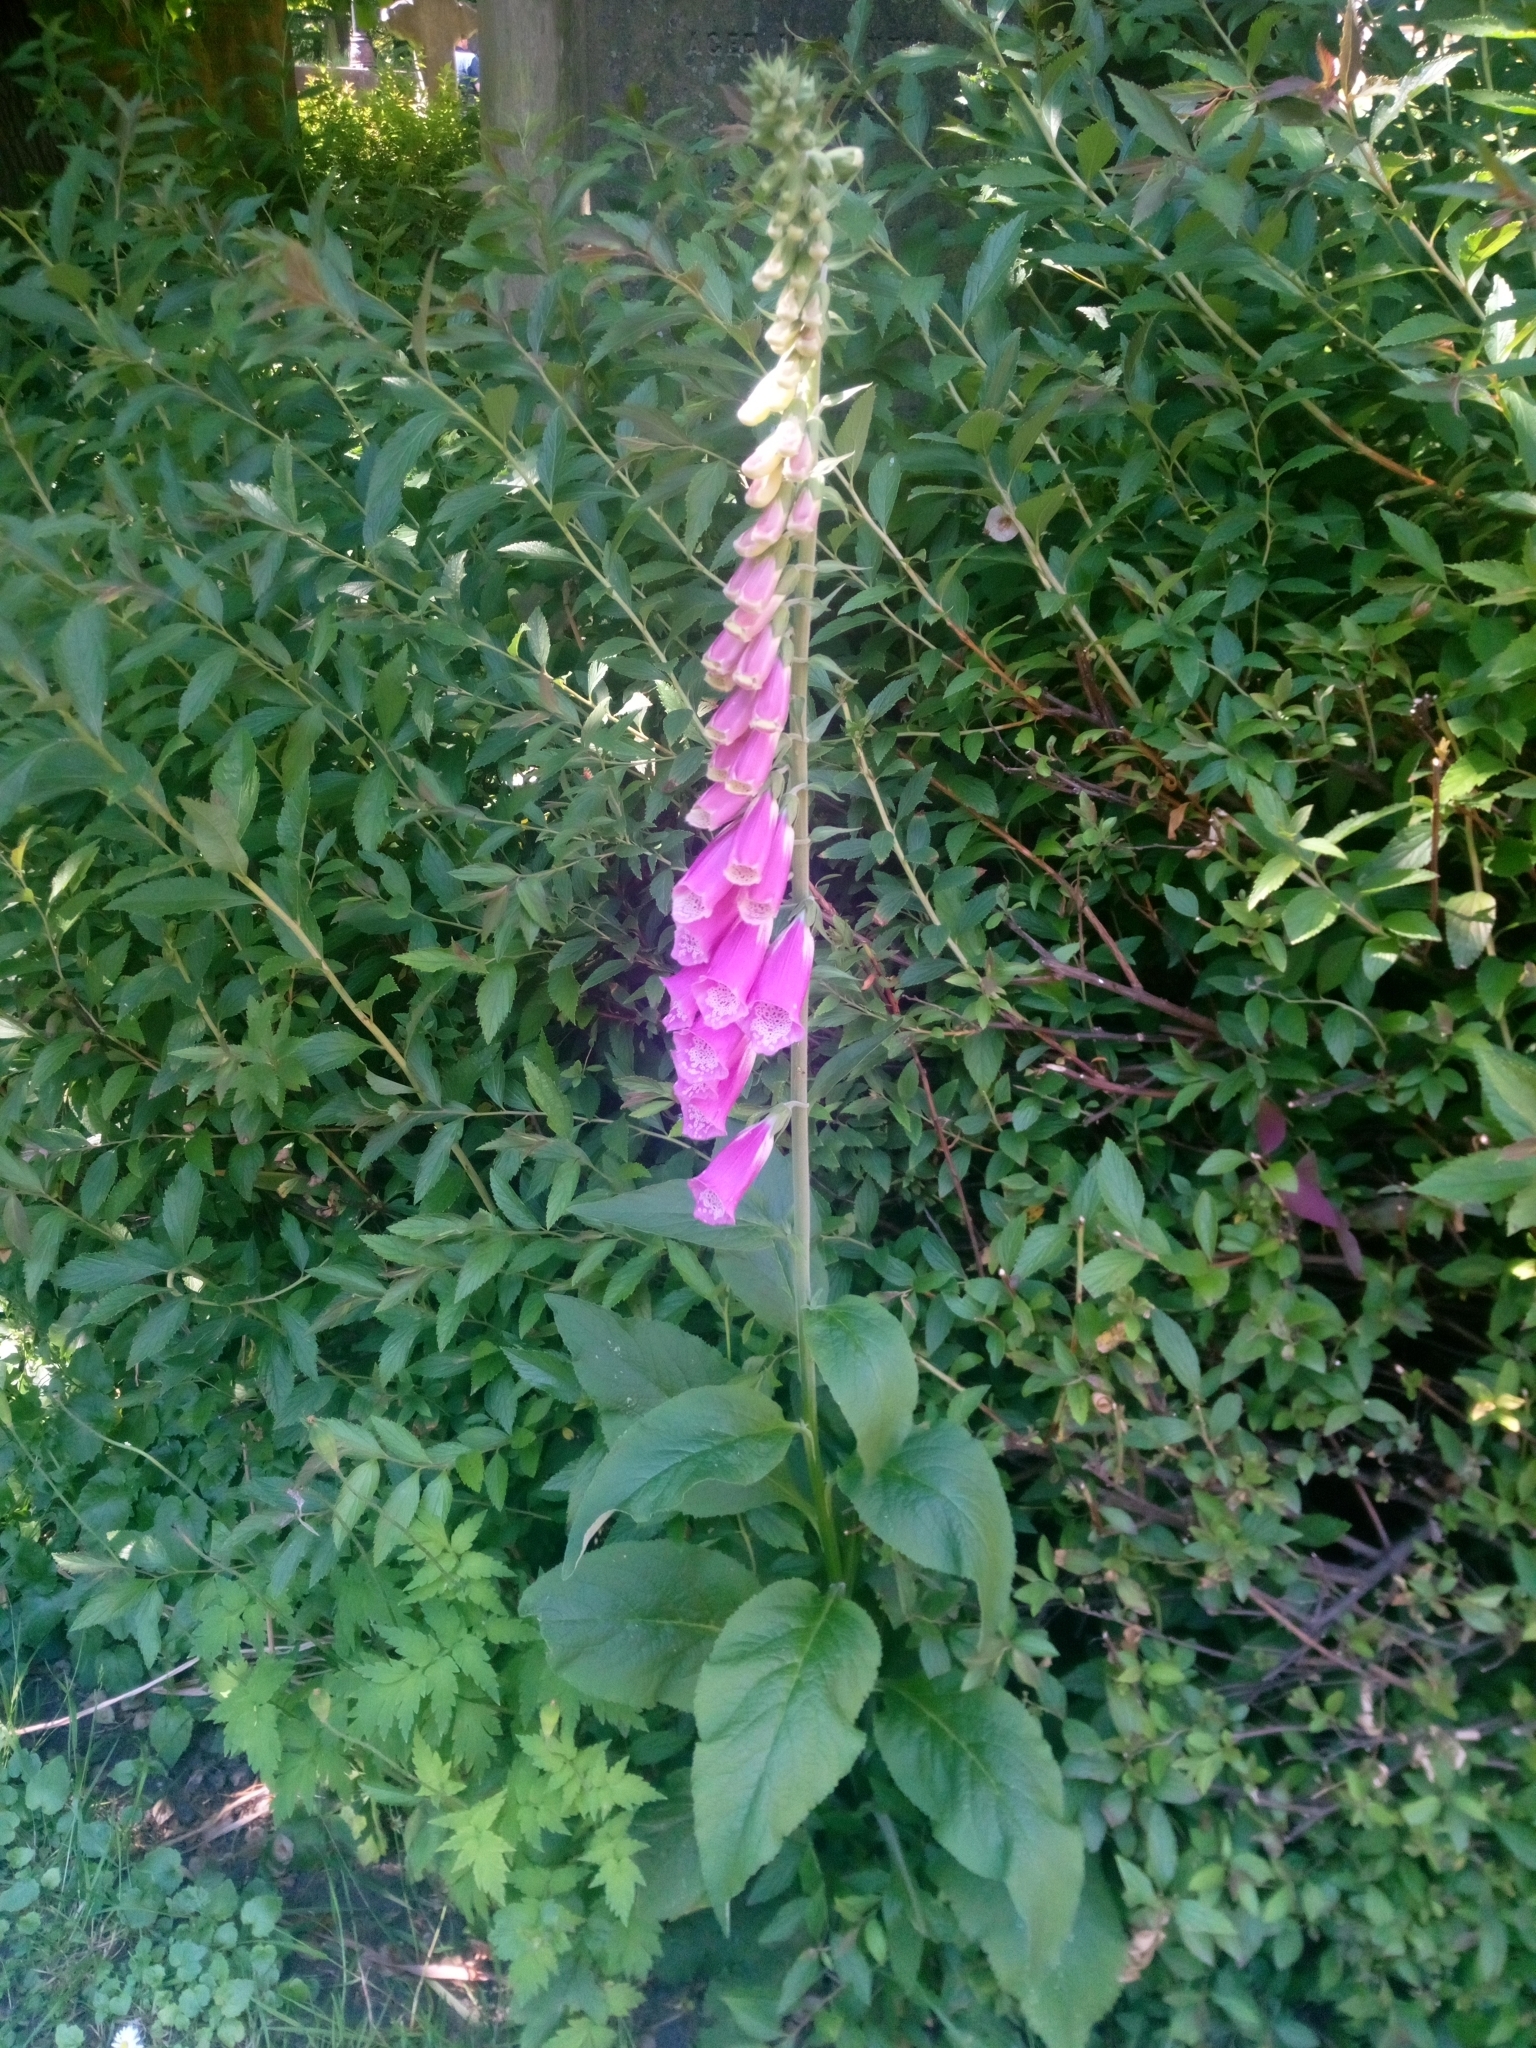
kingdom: Plantae
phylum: Tracheophyta
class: Magnoliopsida
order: Lamiales
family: Plantaginaceae
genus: Digitalis
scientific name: Digitalis purpurea
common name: Foxglove
